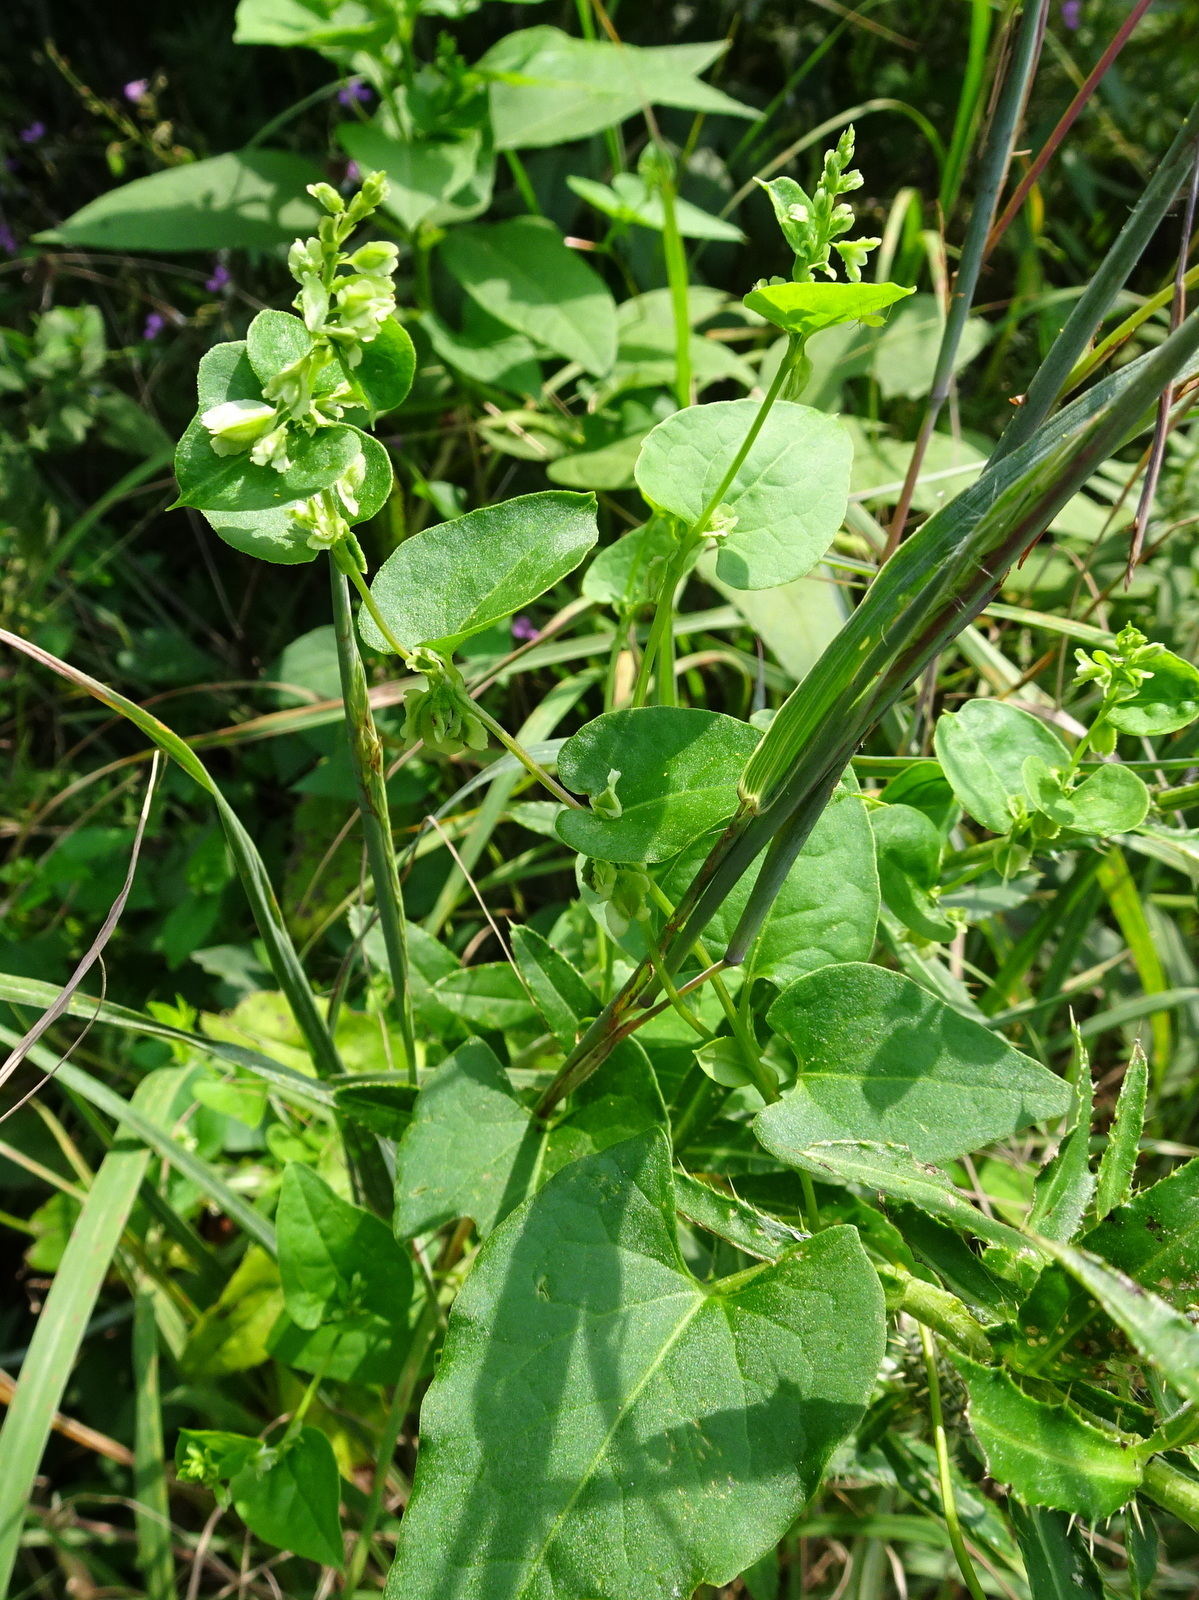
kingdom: Plantae
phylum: Tracheophyta
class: Magnoliopsida
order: Caryophyllales
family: Polygonaceae
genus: Fallopia
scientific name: Fallopia scandens
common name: Climbing false buckwheat
